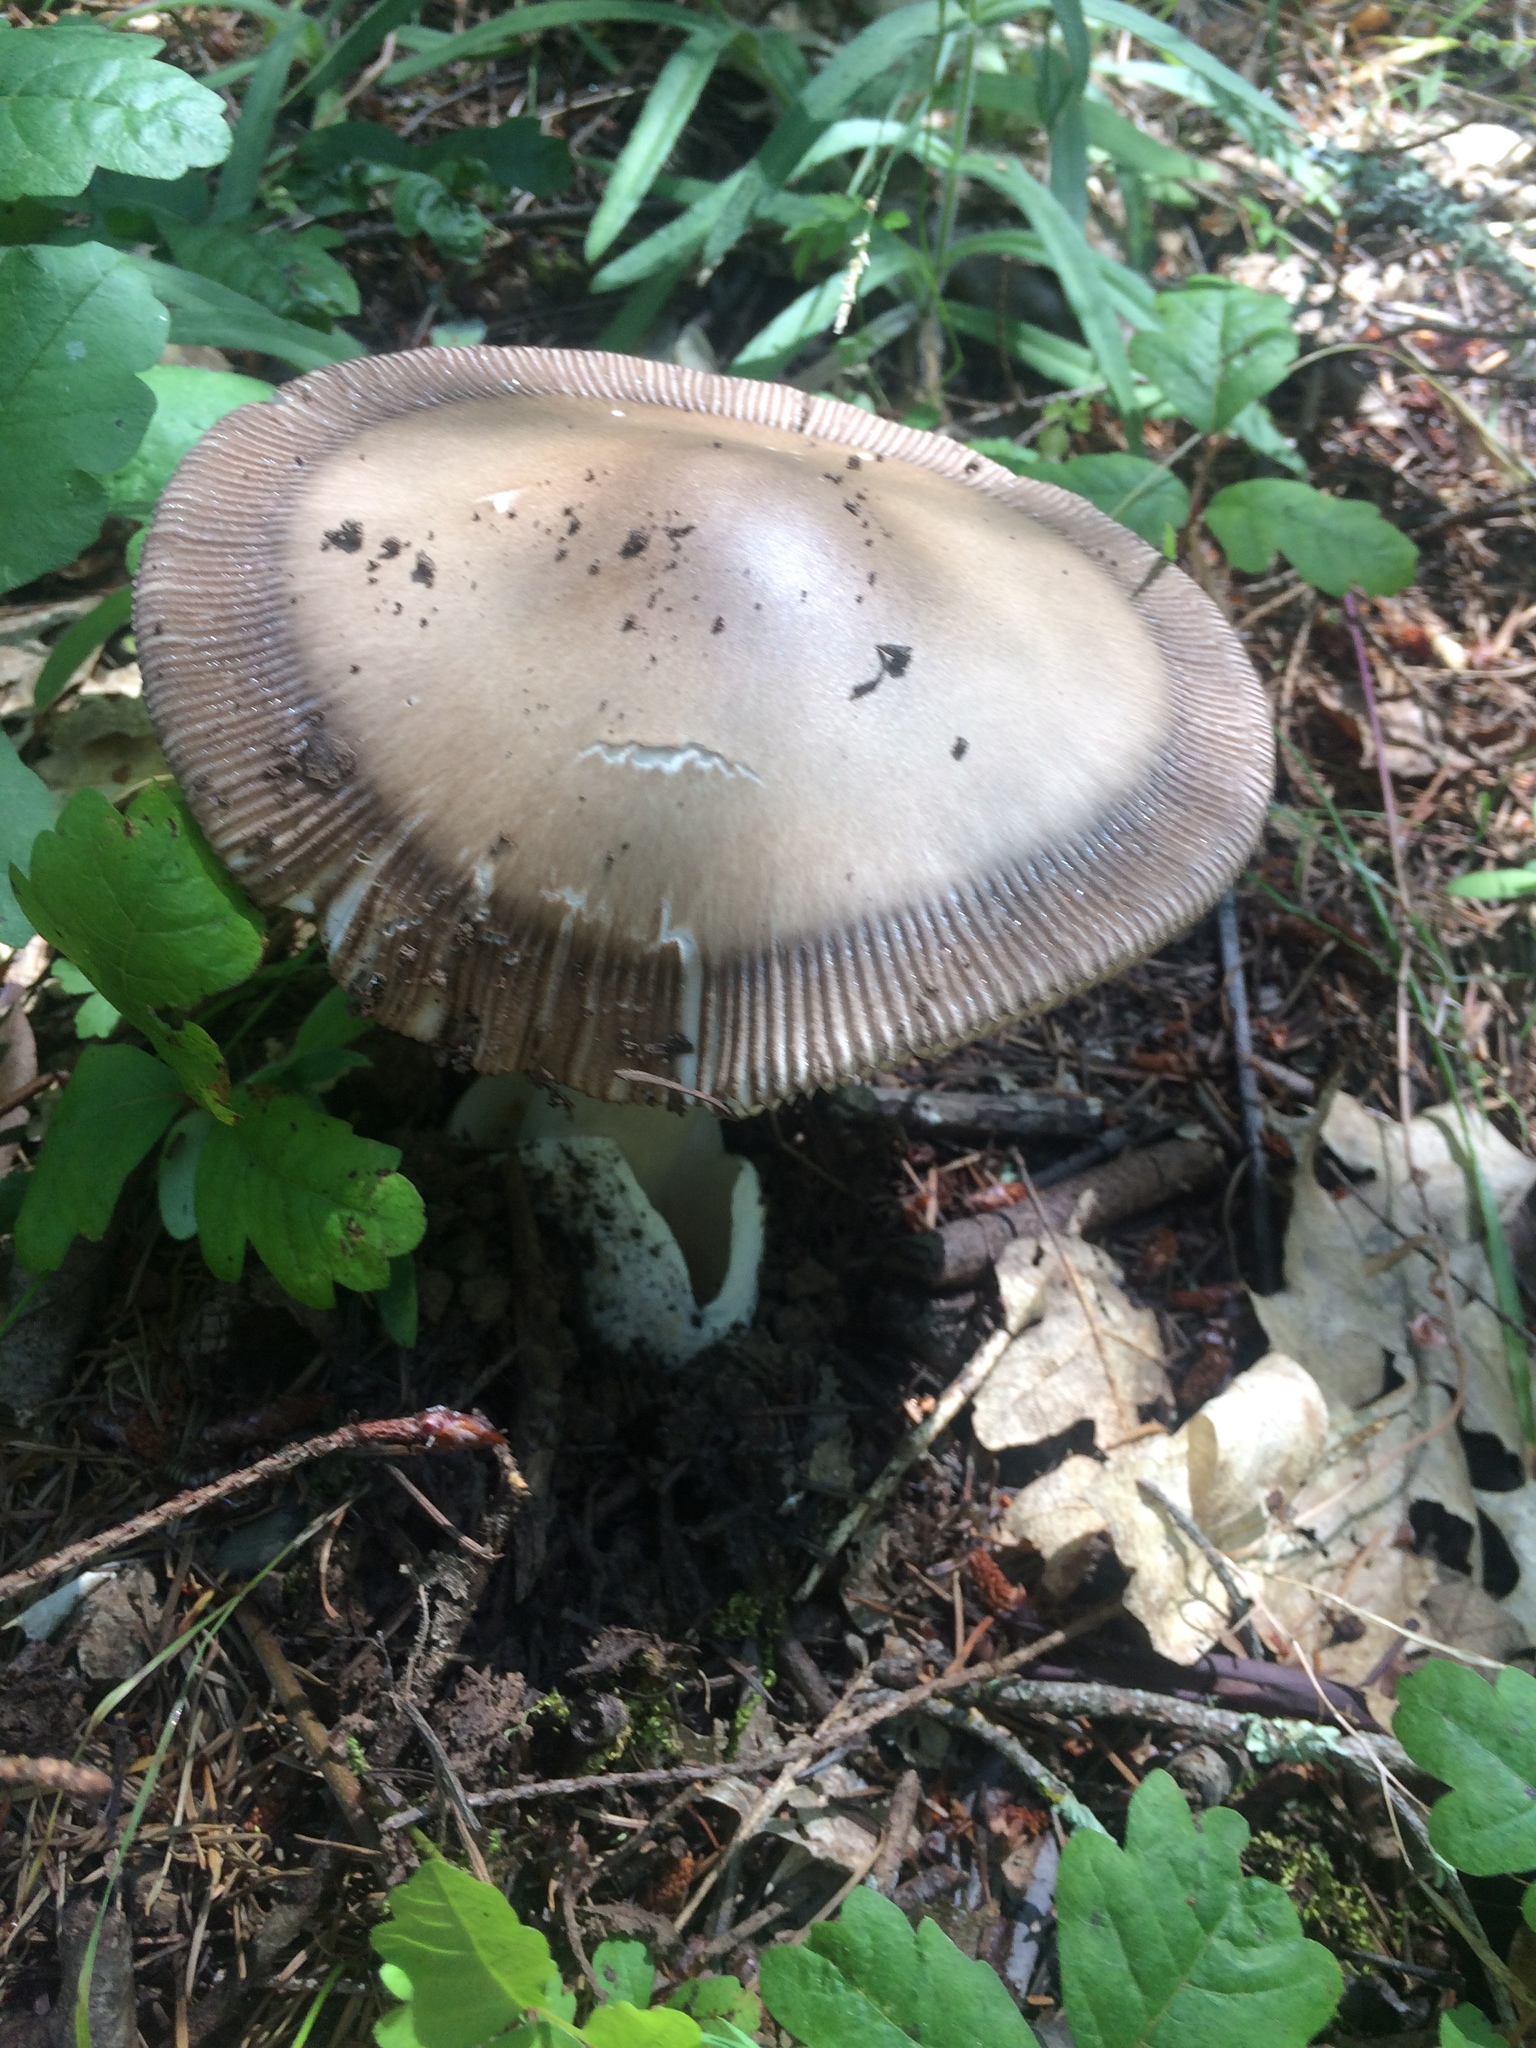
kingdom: Fungi
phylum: Basidiomycota
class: Agaricomycetes
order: Agaricales
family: Amanitaceae
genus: Amanita
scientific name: Amanita pachycolea
